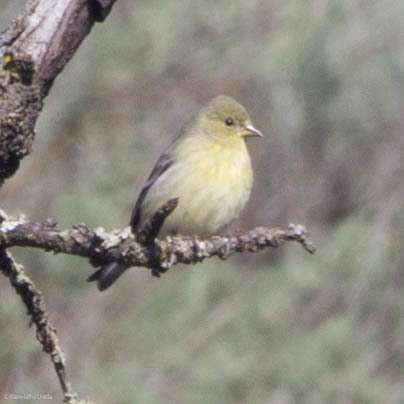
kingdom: Animalia
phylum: Chordata
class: Aves
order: Passeriformes
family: Fringillidae
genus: Spinus
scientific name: Spinus psaltria
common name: Lesser goldfinch
